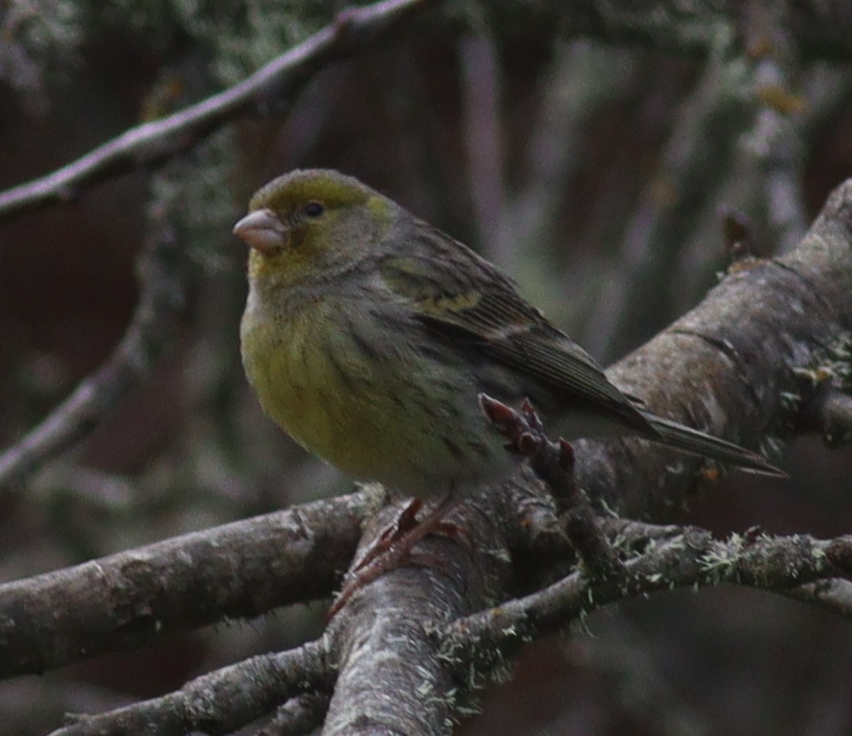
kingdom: Animalia
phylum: Chordata
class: Aves
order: Passeriformes
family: Fringillidae
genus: Serinus
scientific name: Serinus canaria
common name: Atlantic canary
